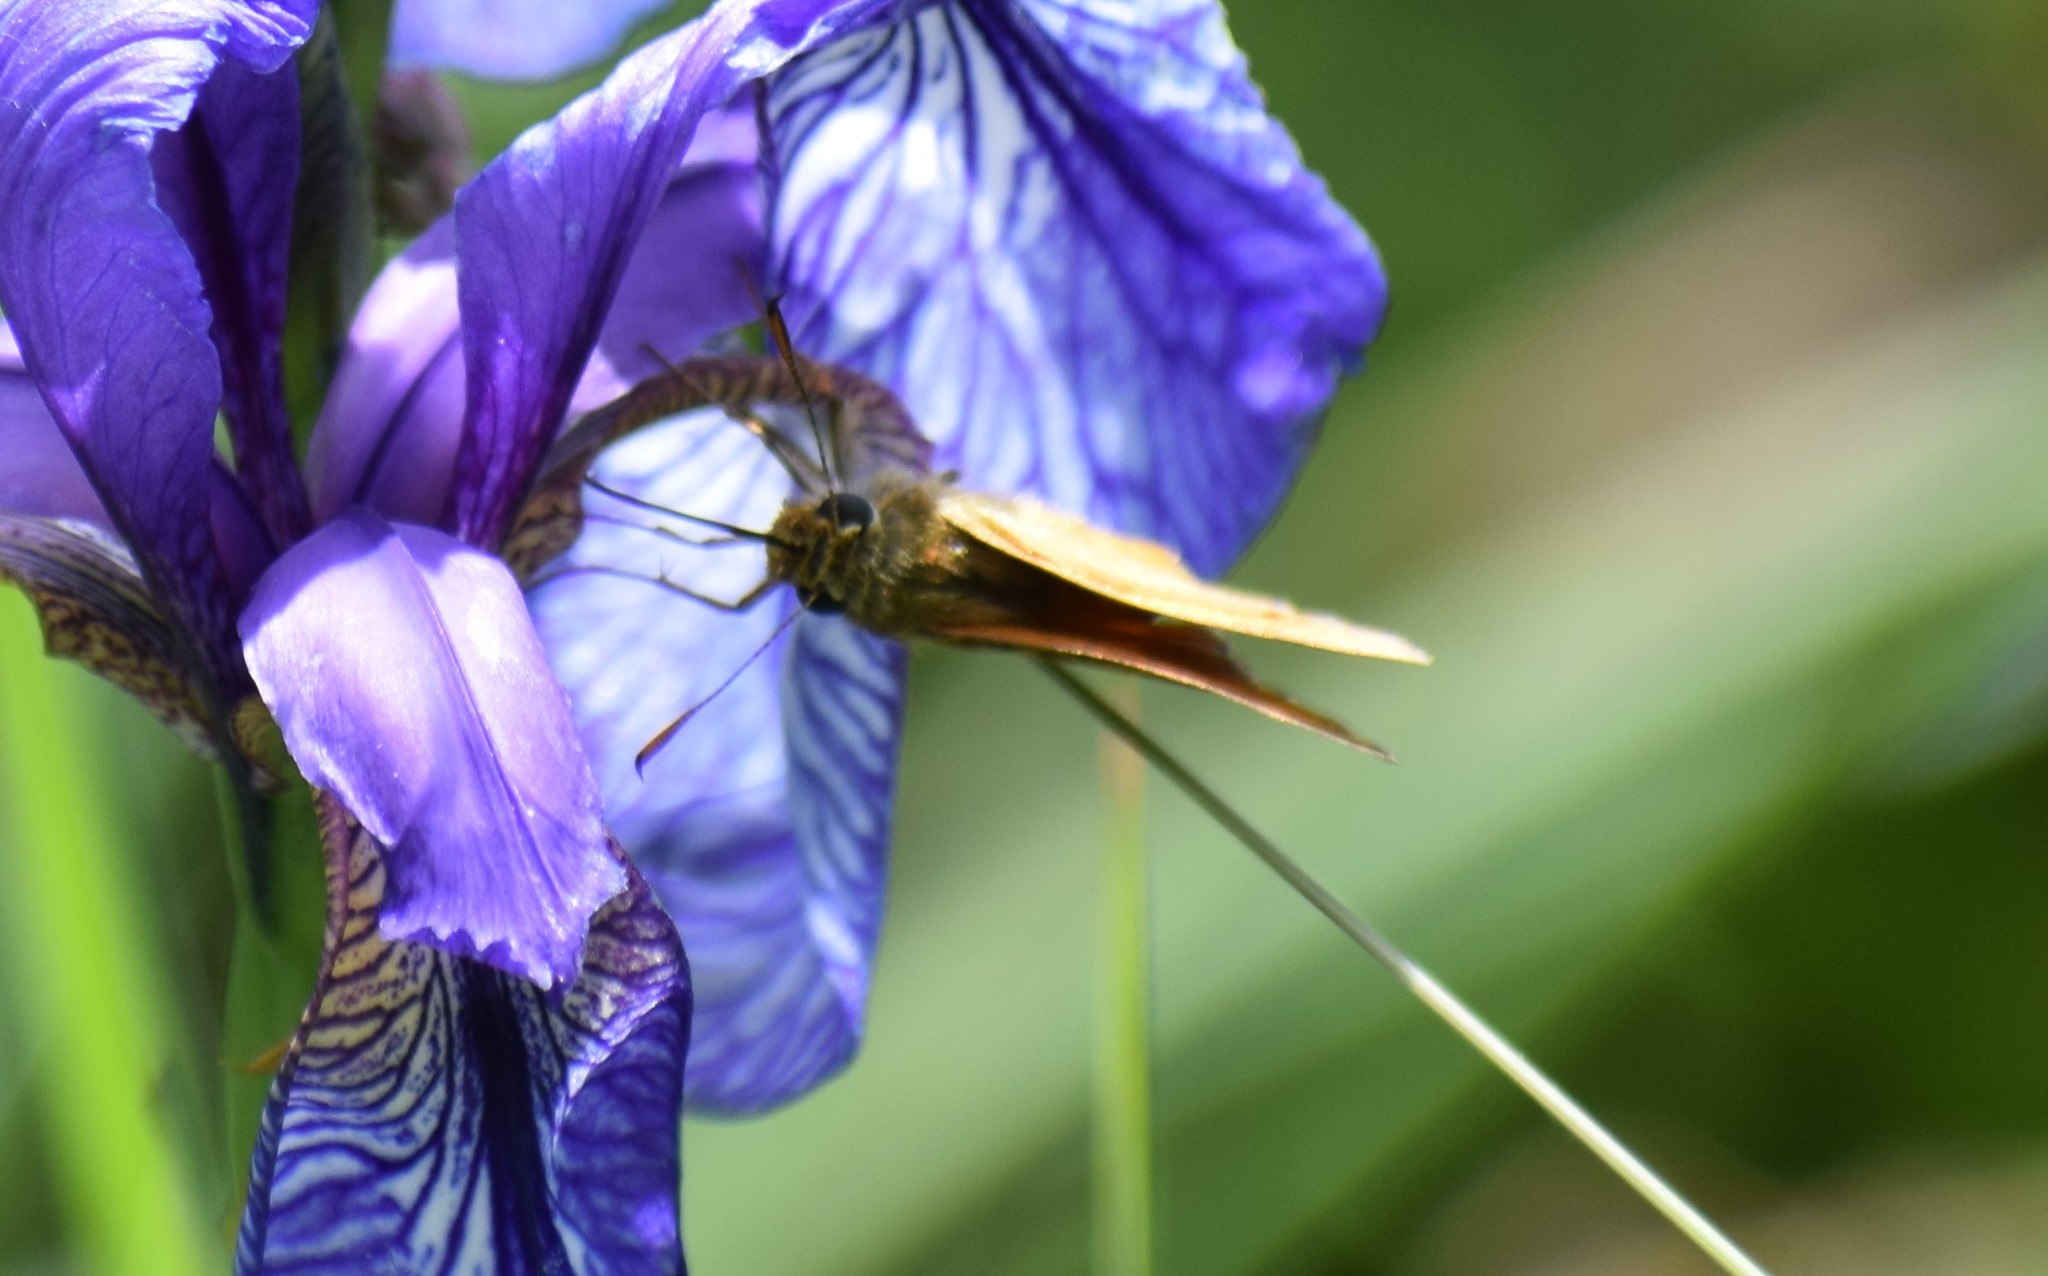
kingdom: Animalia
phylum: Arthropoda
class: Insecta
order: Lepidoptera
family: Hesperiidae
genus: Ochlodes
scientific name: Ochlodes venata
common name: Large skipper
